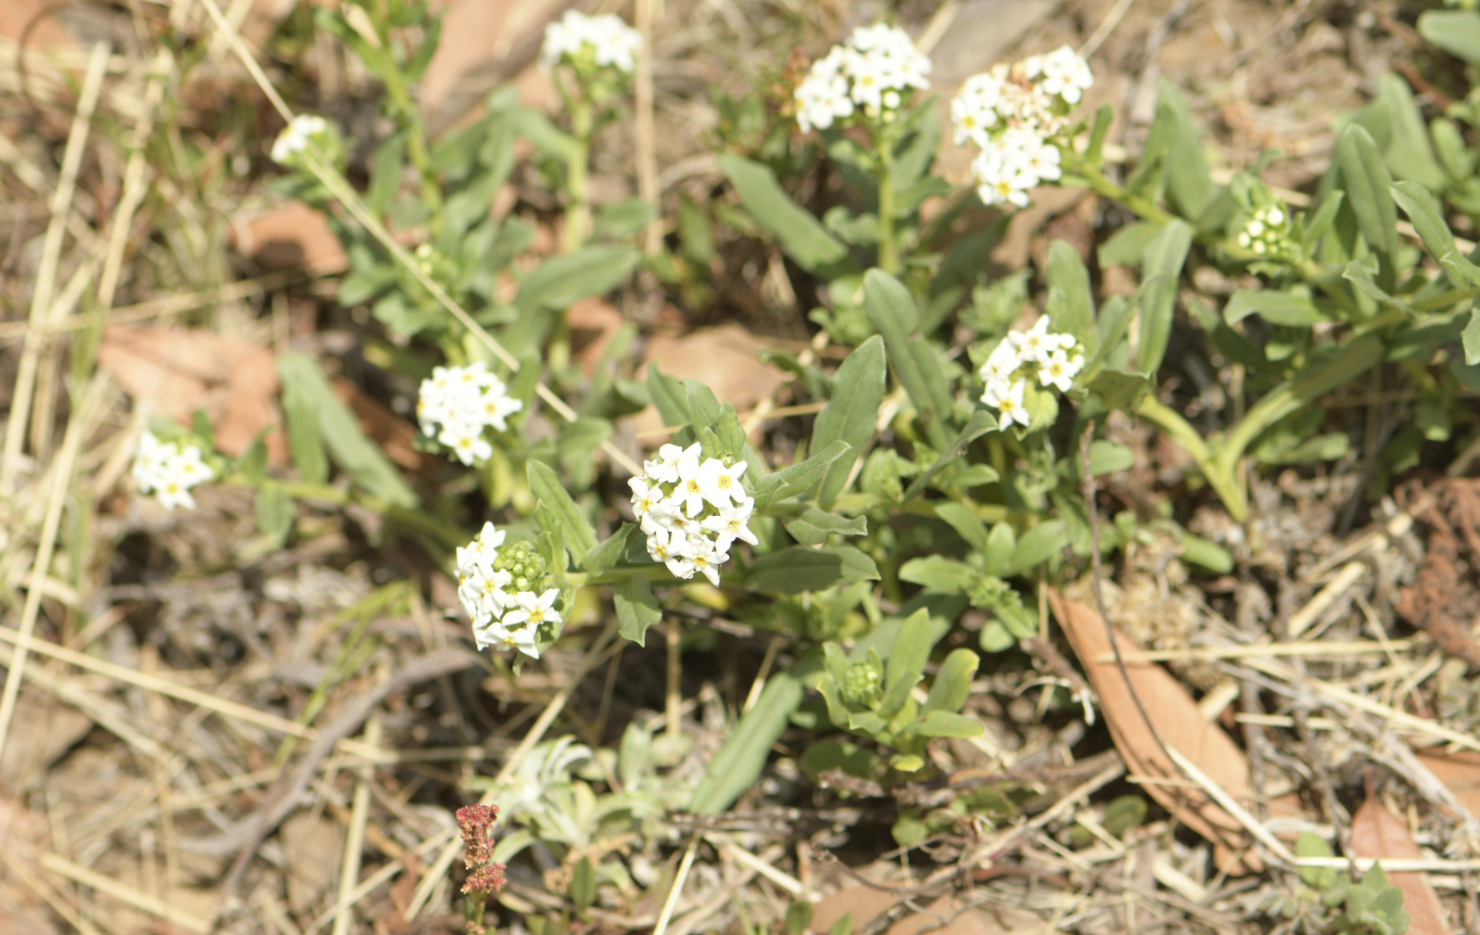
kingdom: Plantae
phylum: Tracheophyta
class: Magnoliopsida
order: Boraginales
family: Boraginaceae
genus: Lithospermum
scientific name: Lithospermum distichum
